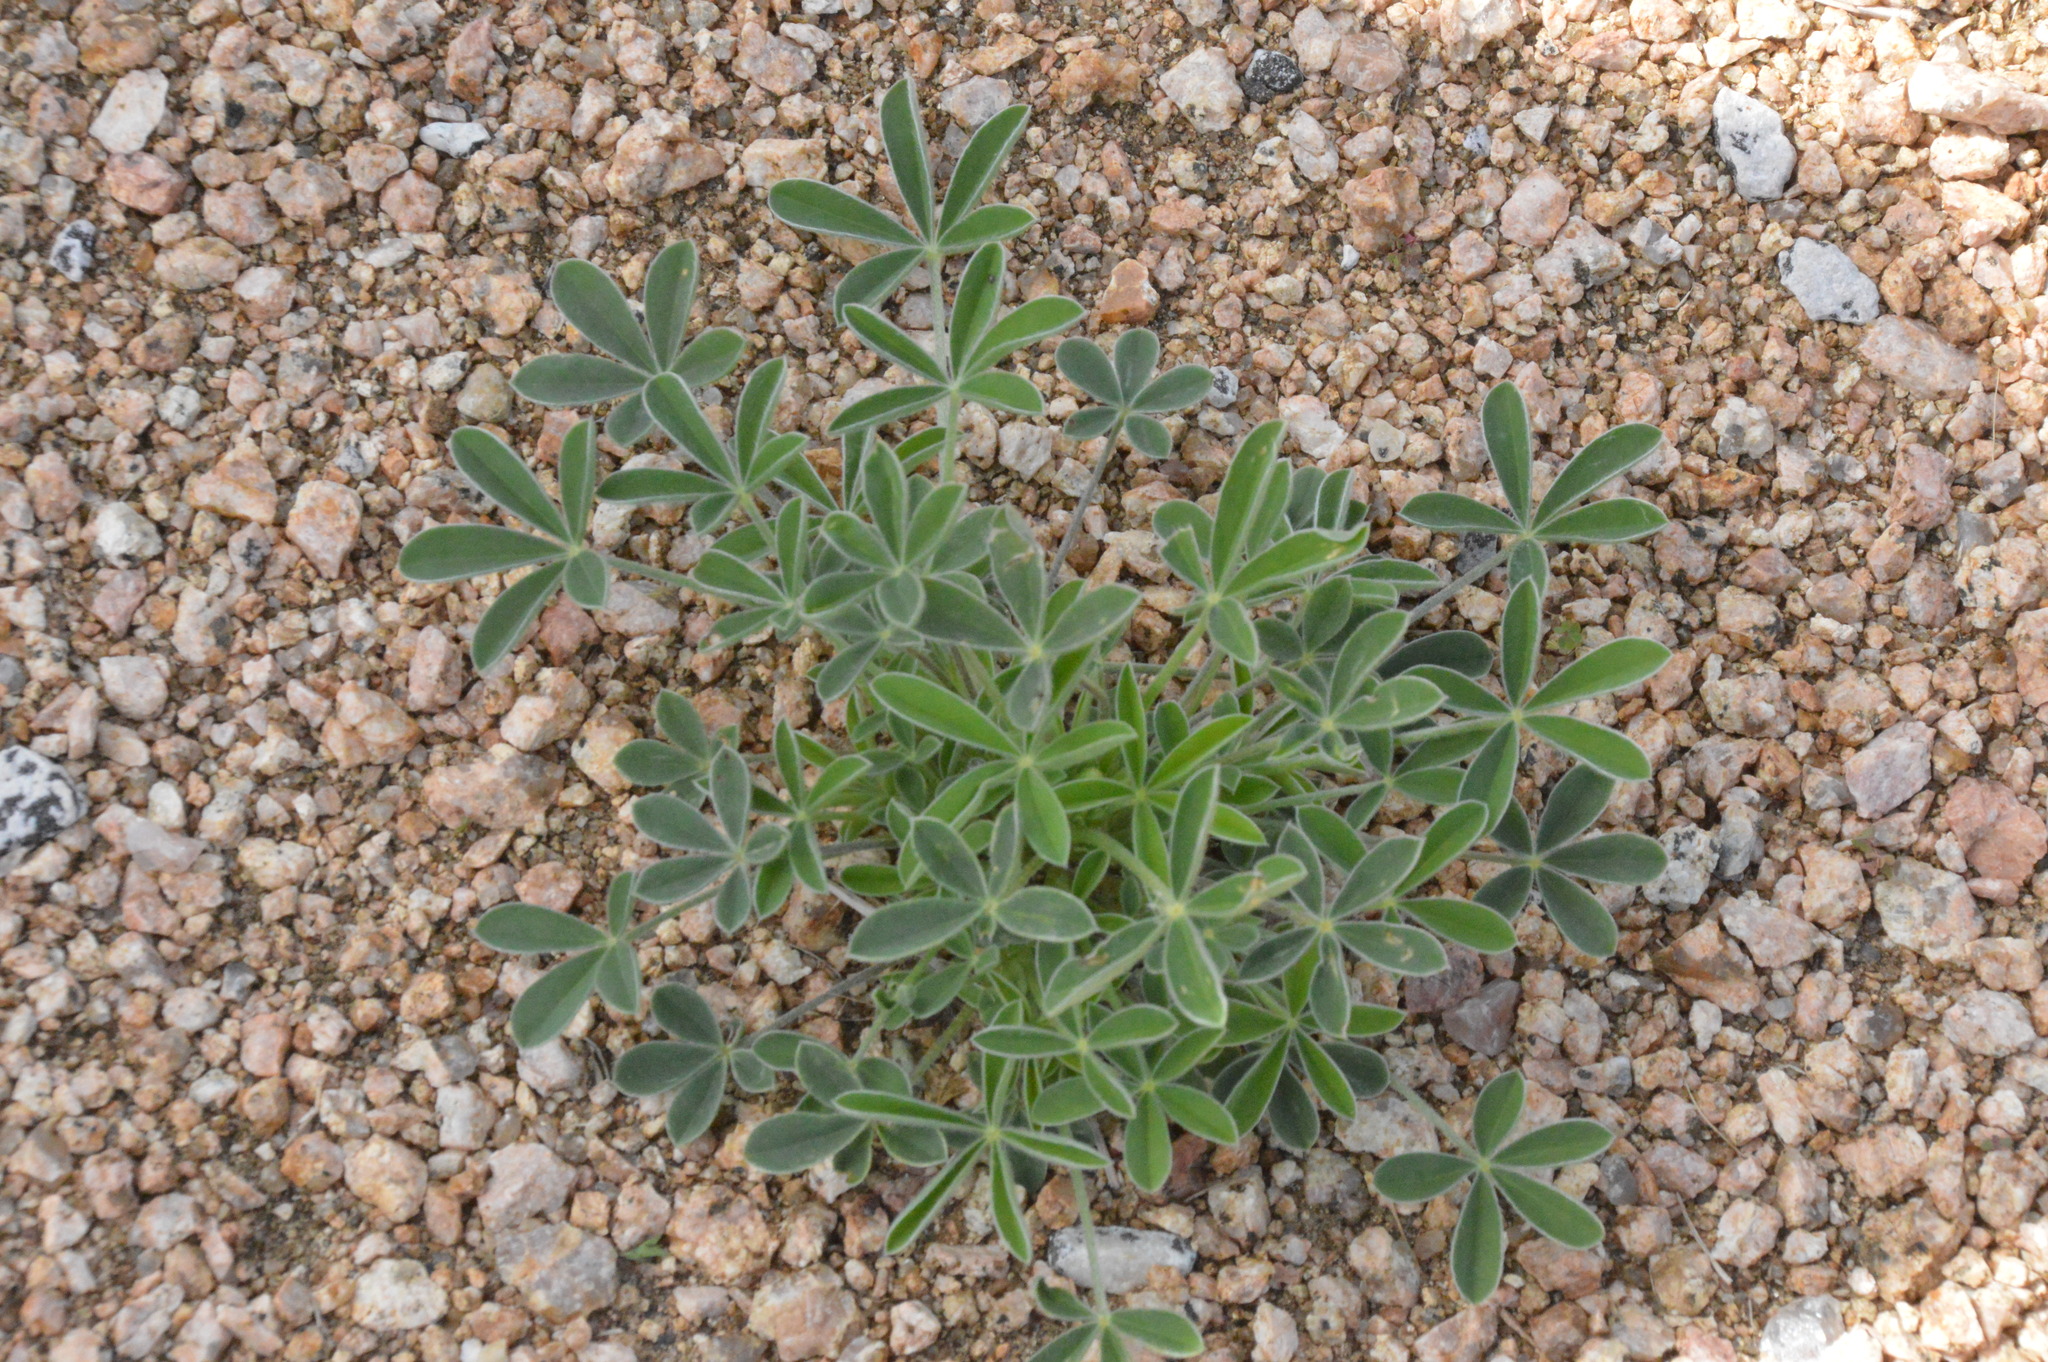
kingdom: Plantae
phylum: Tracheophyta
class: Magnoliopsida
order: Fabales
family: Fabaceae
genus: Lupinus
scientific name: Lupinus texensis
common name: Texas bluebonnet
